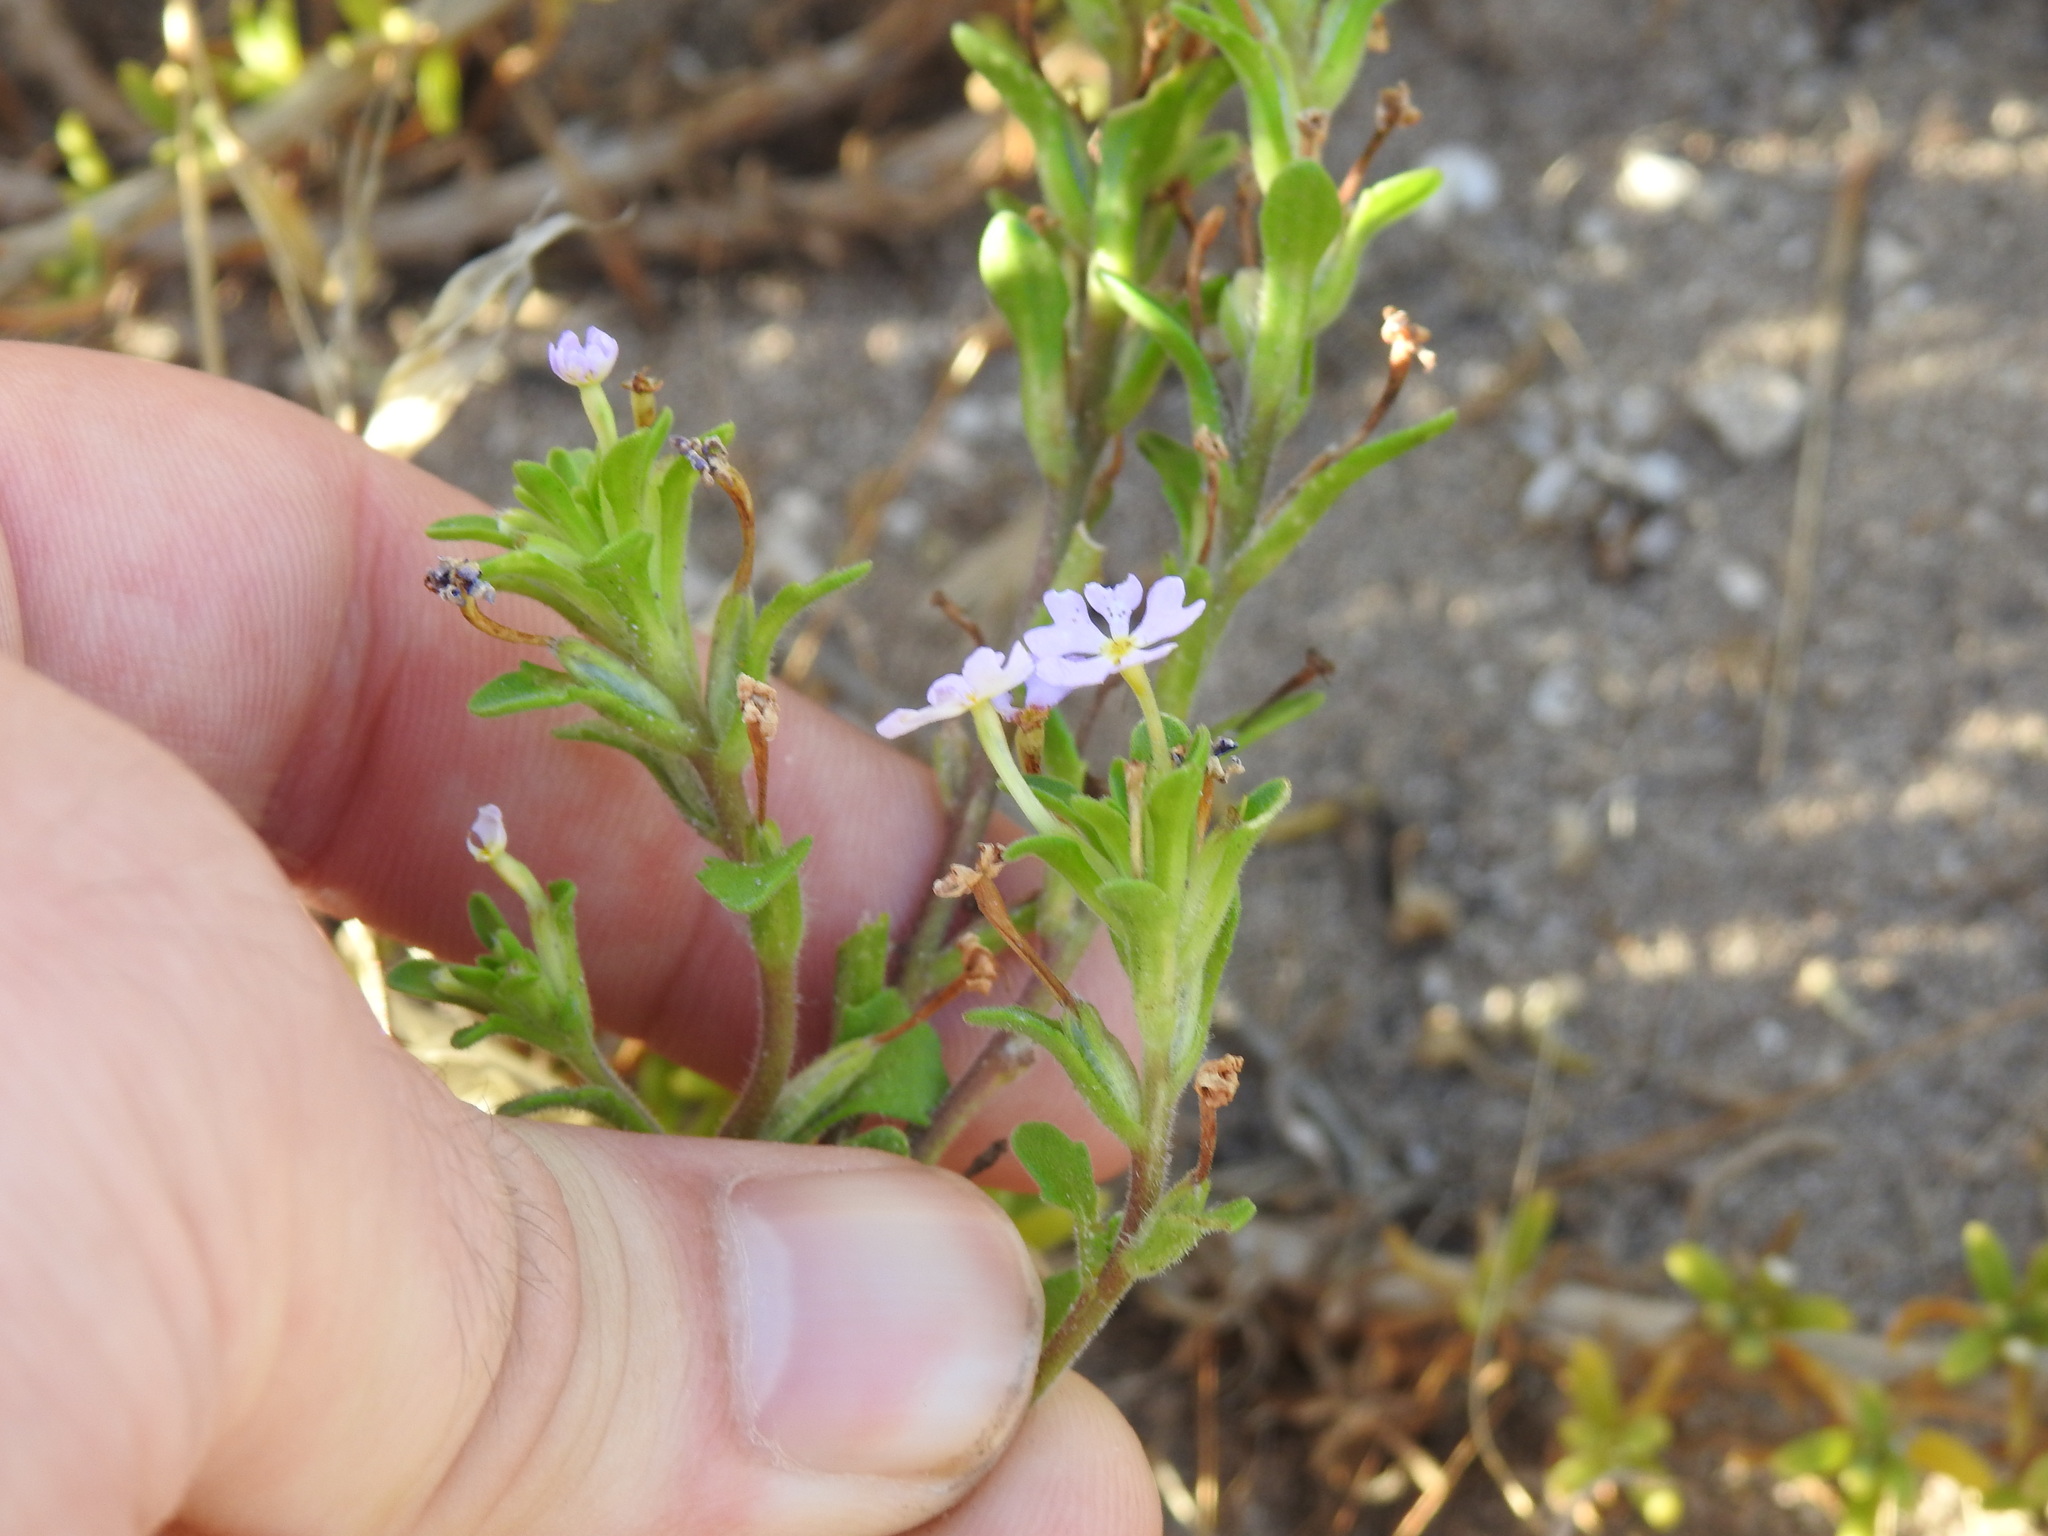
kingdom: Plantae
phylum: Tracheophyta
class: Magnoliopsida
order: Lamiales
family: Scrophulariaceae
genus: Zaluzianskya
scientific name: Zaluzianskya villosa
